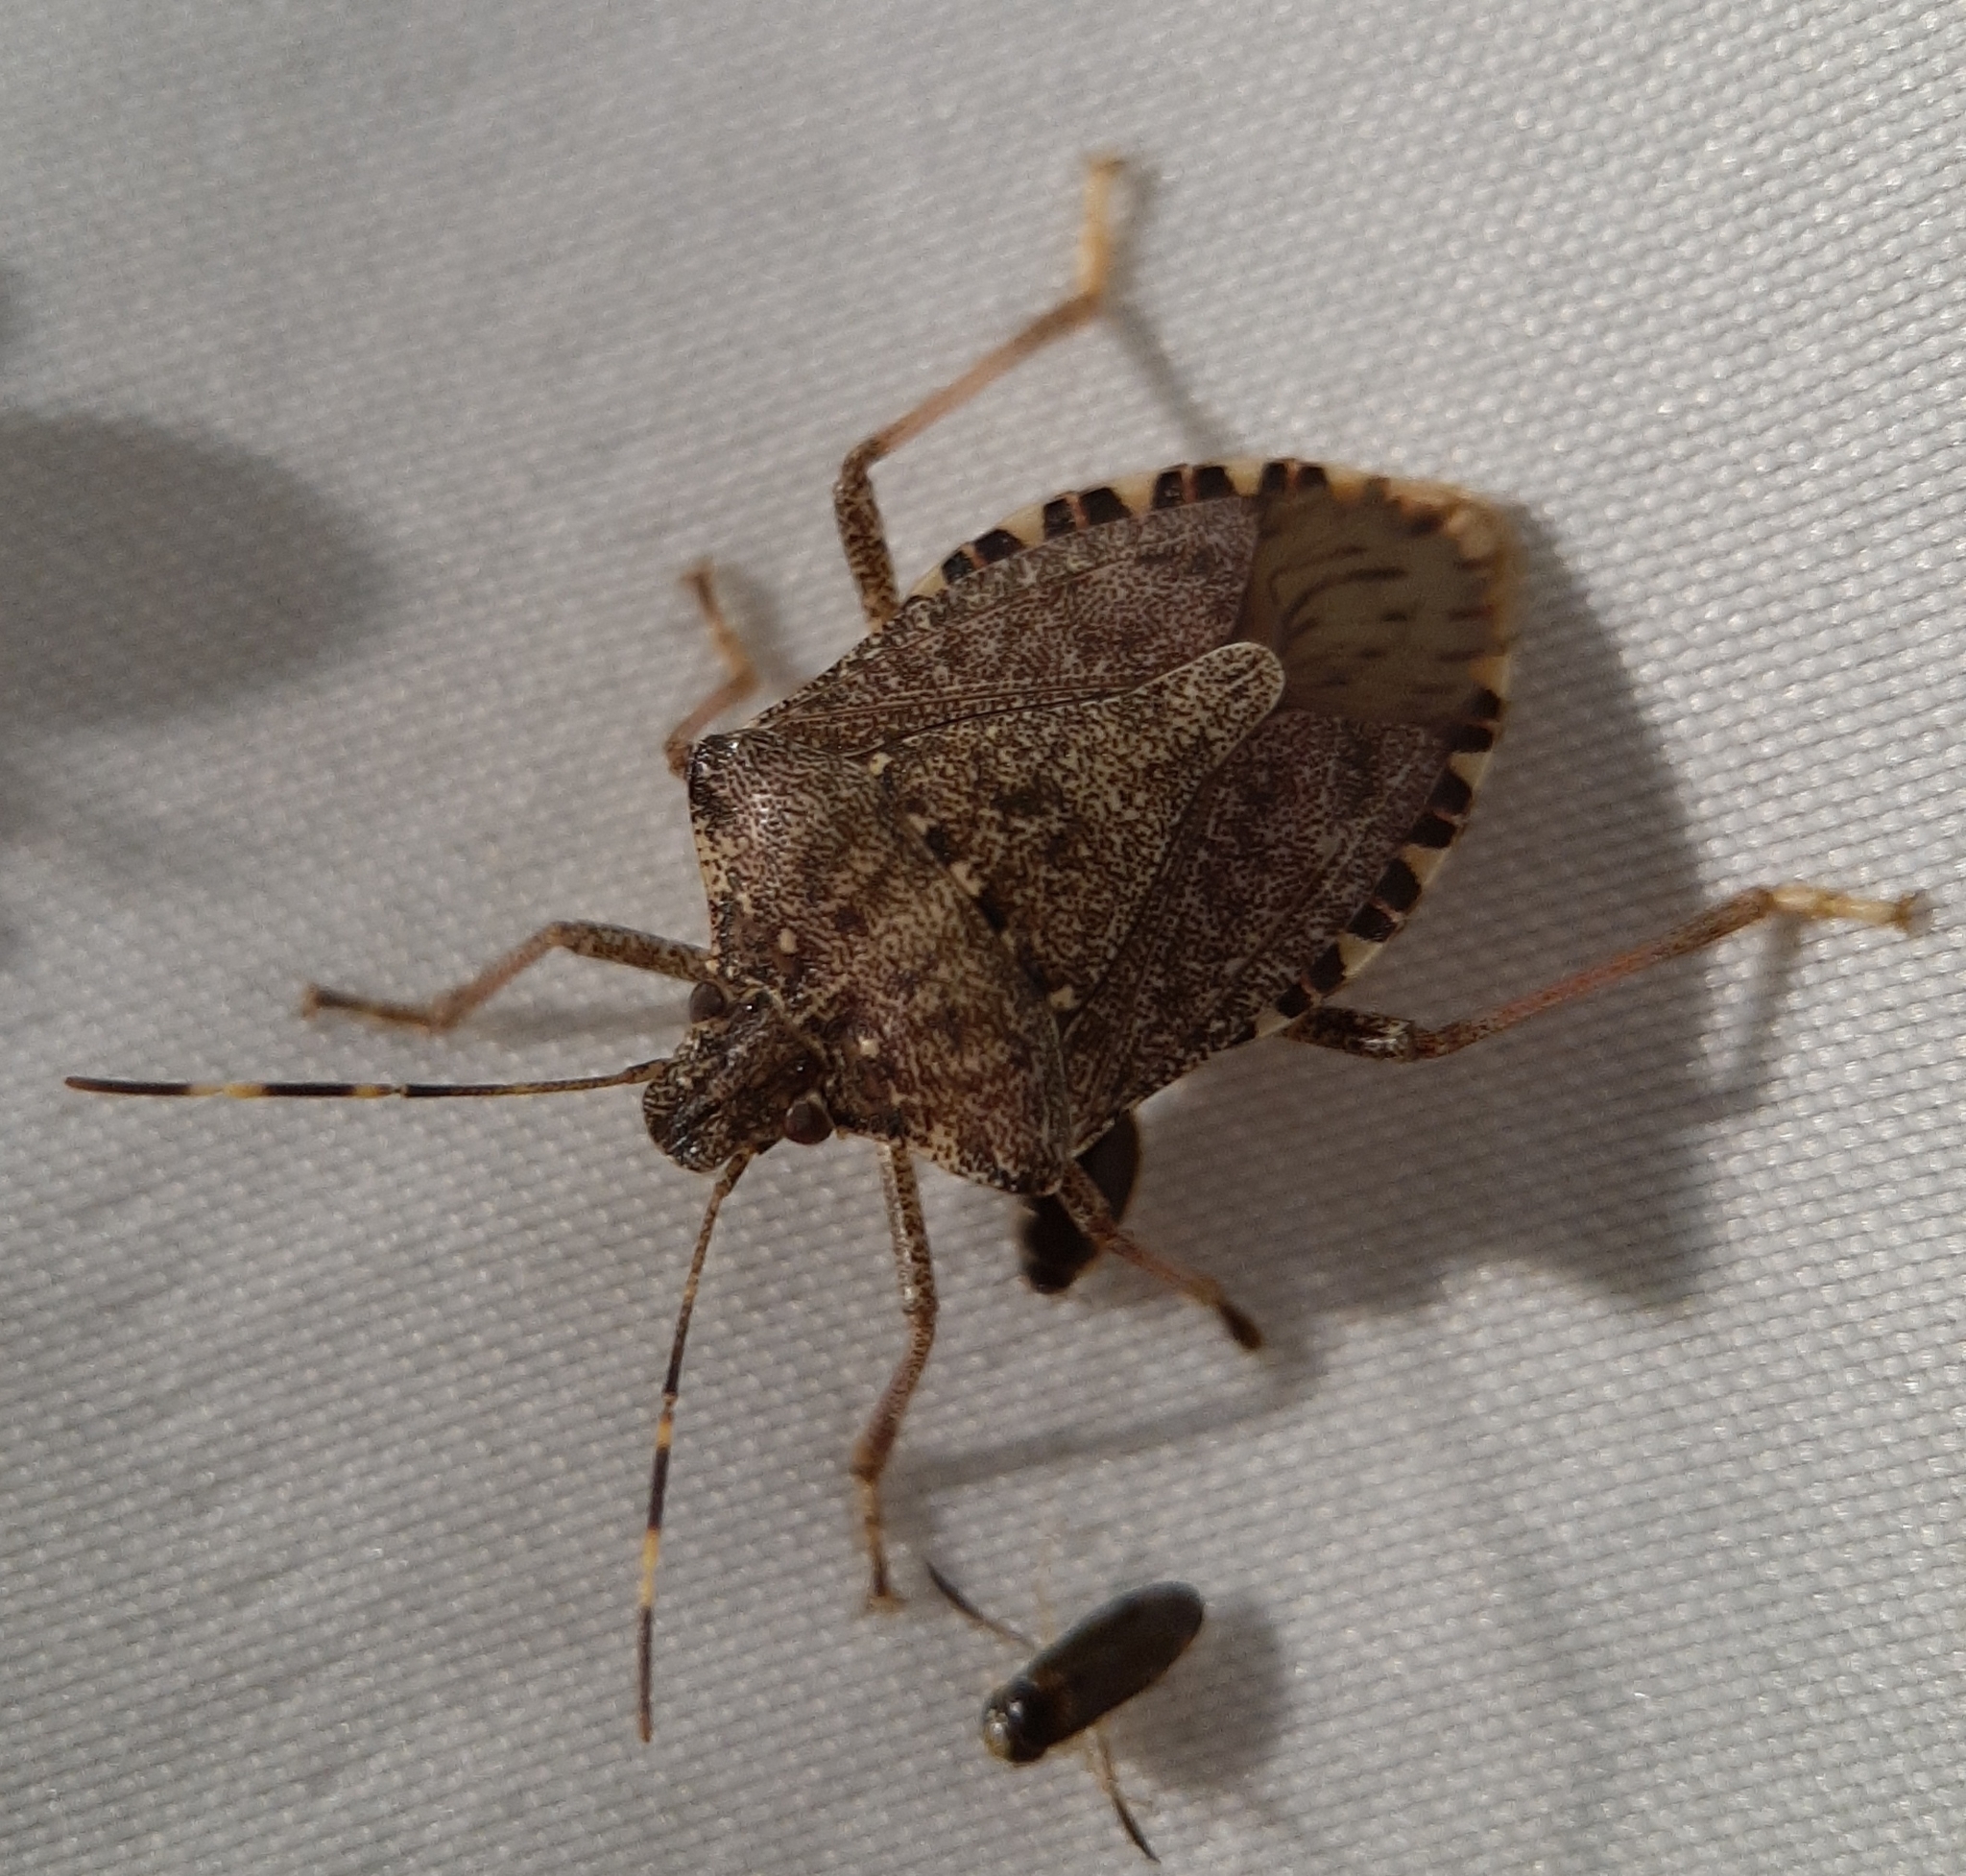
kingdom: Animalia
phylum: Arthropoda
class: Insecta
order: Hemiptera
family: Pentatomidae
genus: Halyomorpha
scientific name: Halyomorpha halys
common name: Brown marmorated stink bug
